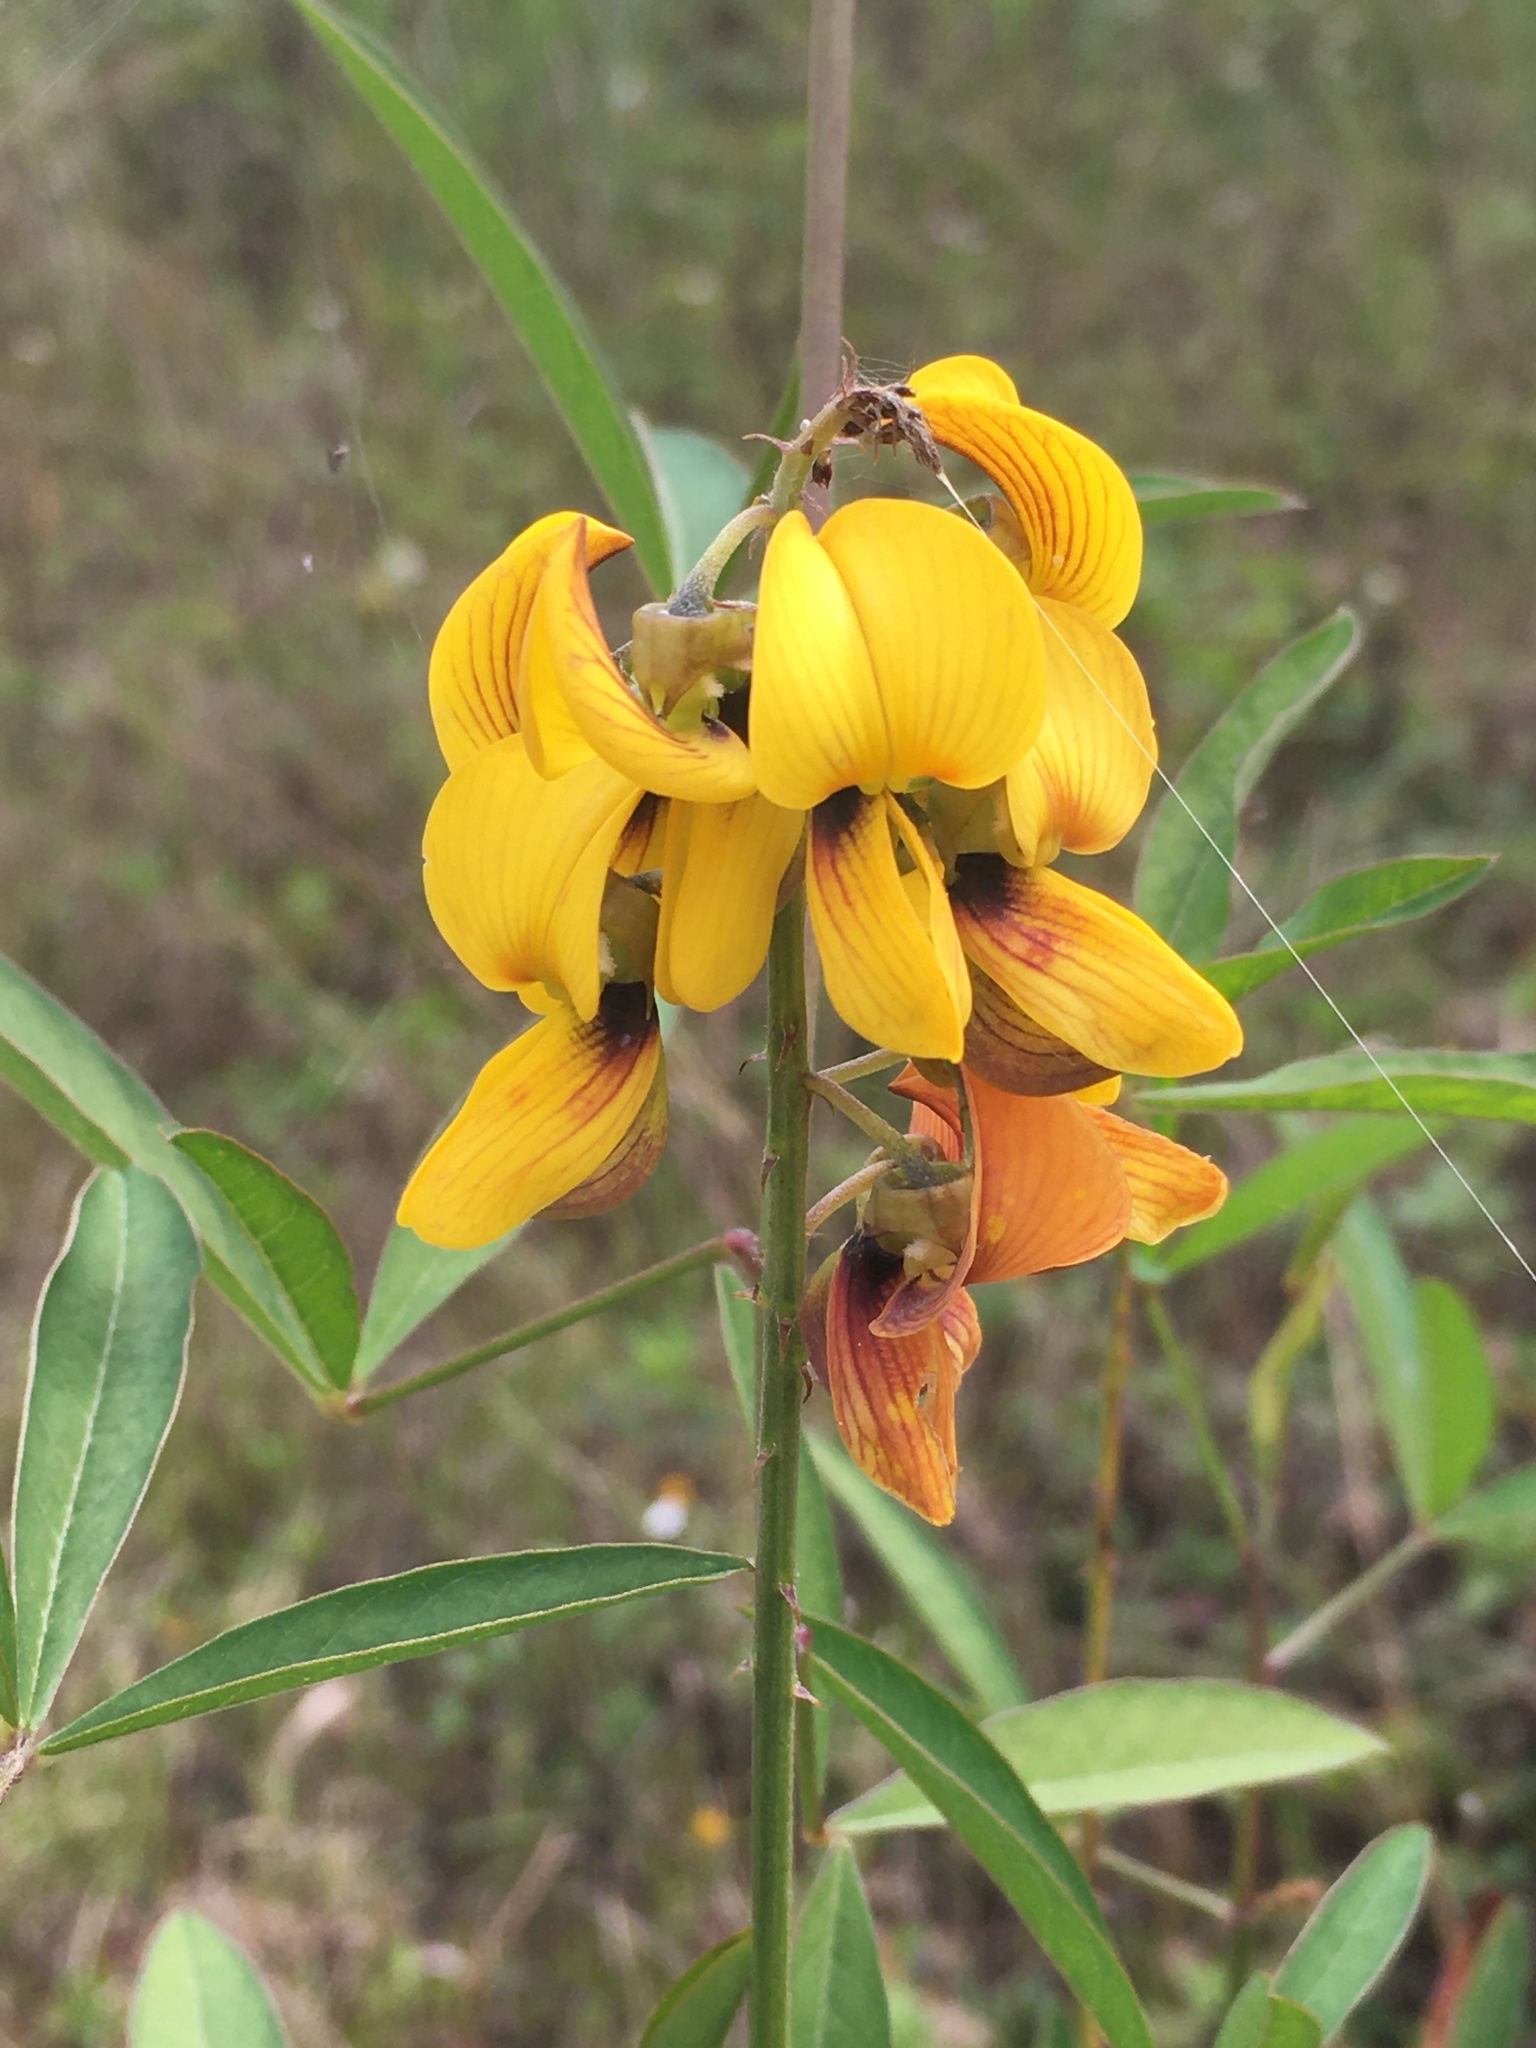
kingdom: Plantae
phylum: Tracheophyta
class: Magnoliopsida
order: Fabales
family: Fabaceae
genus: Crotalaria
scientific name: Crotalaria trichotoma
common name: West indian rattlebox
